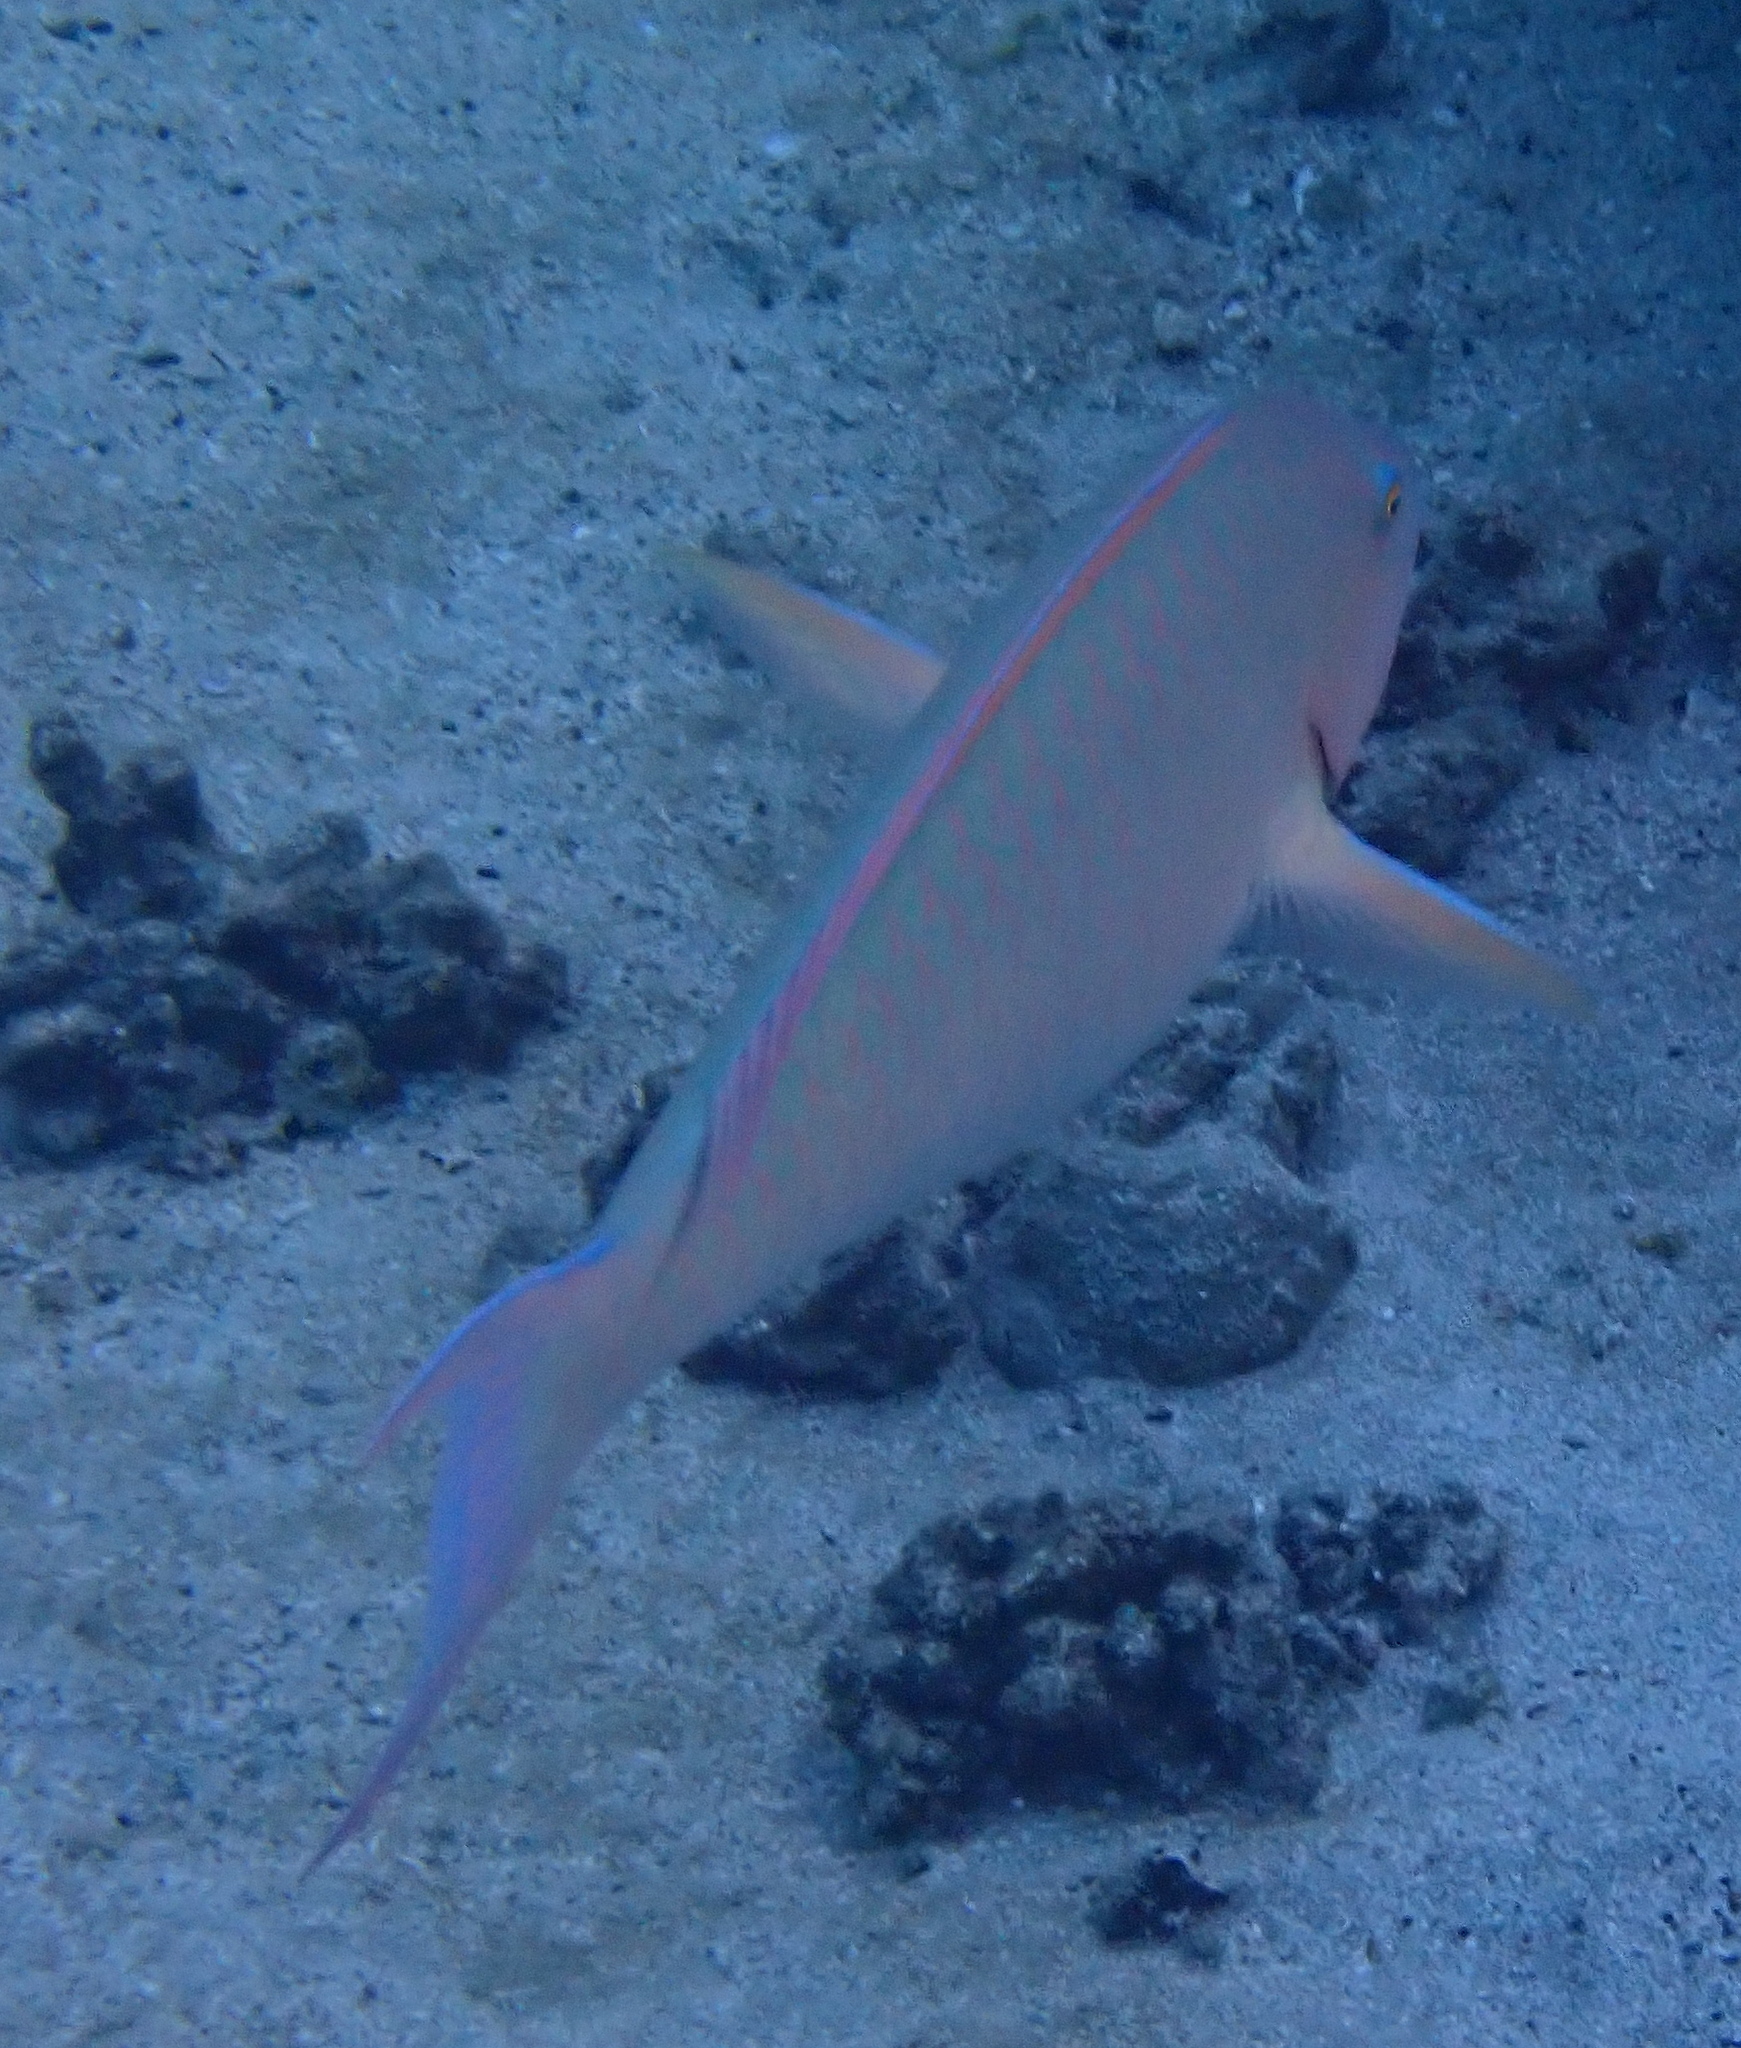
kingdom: Animalia
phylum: Chordata
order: Perciformes
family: Scaridae
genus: Hipposcarus
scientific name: Hipposcarus harid
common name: Candelamoa parrotfish
